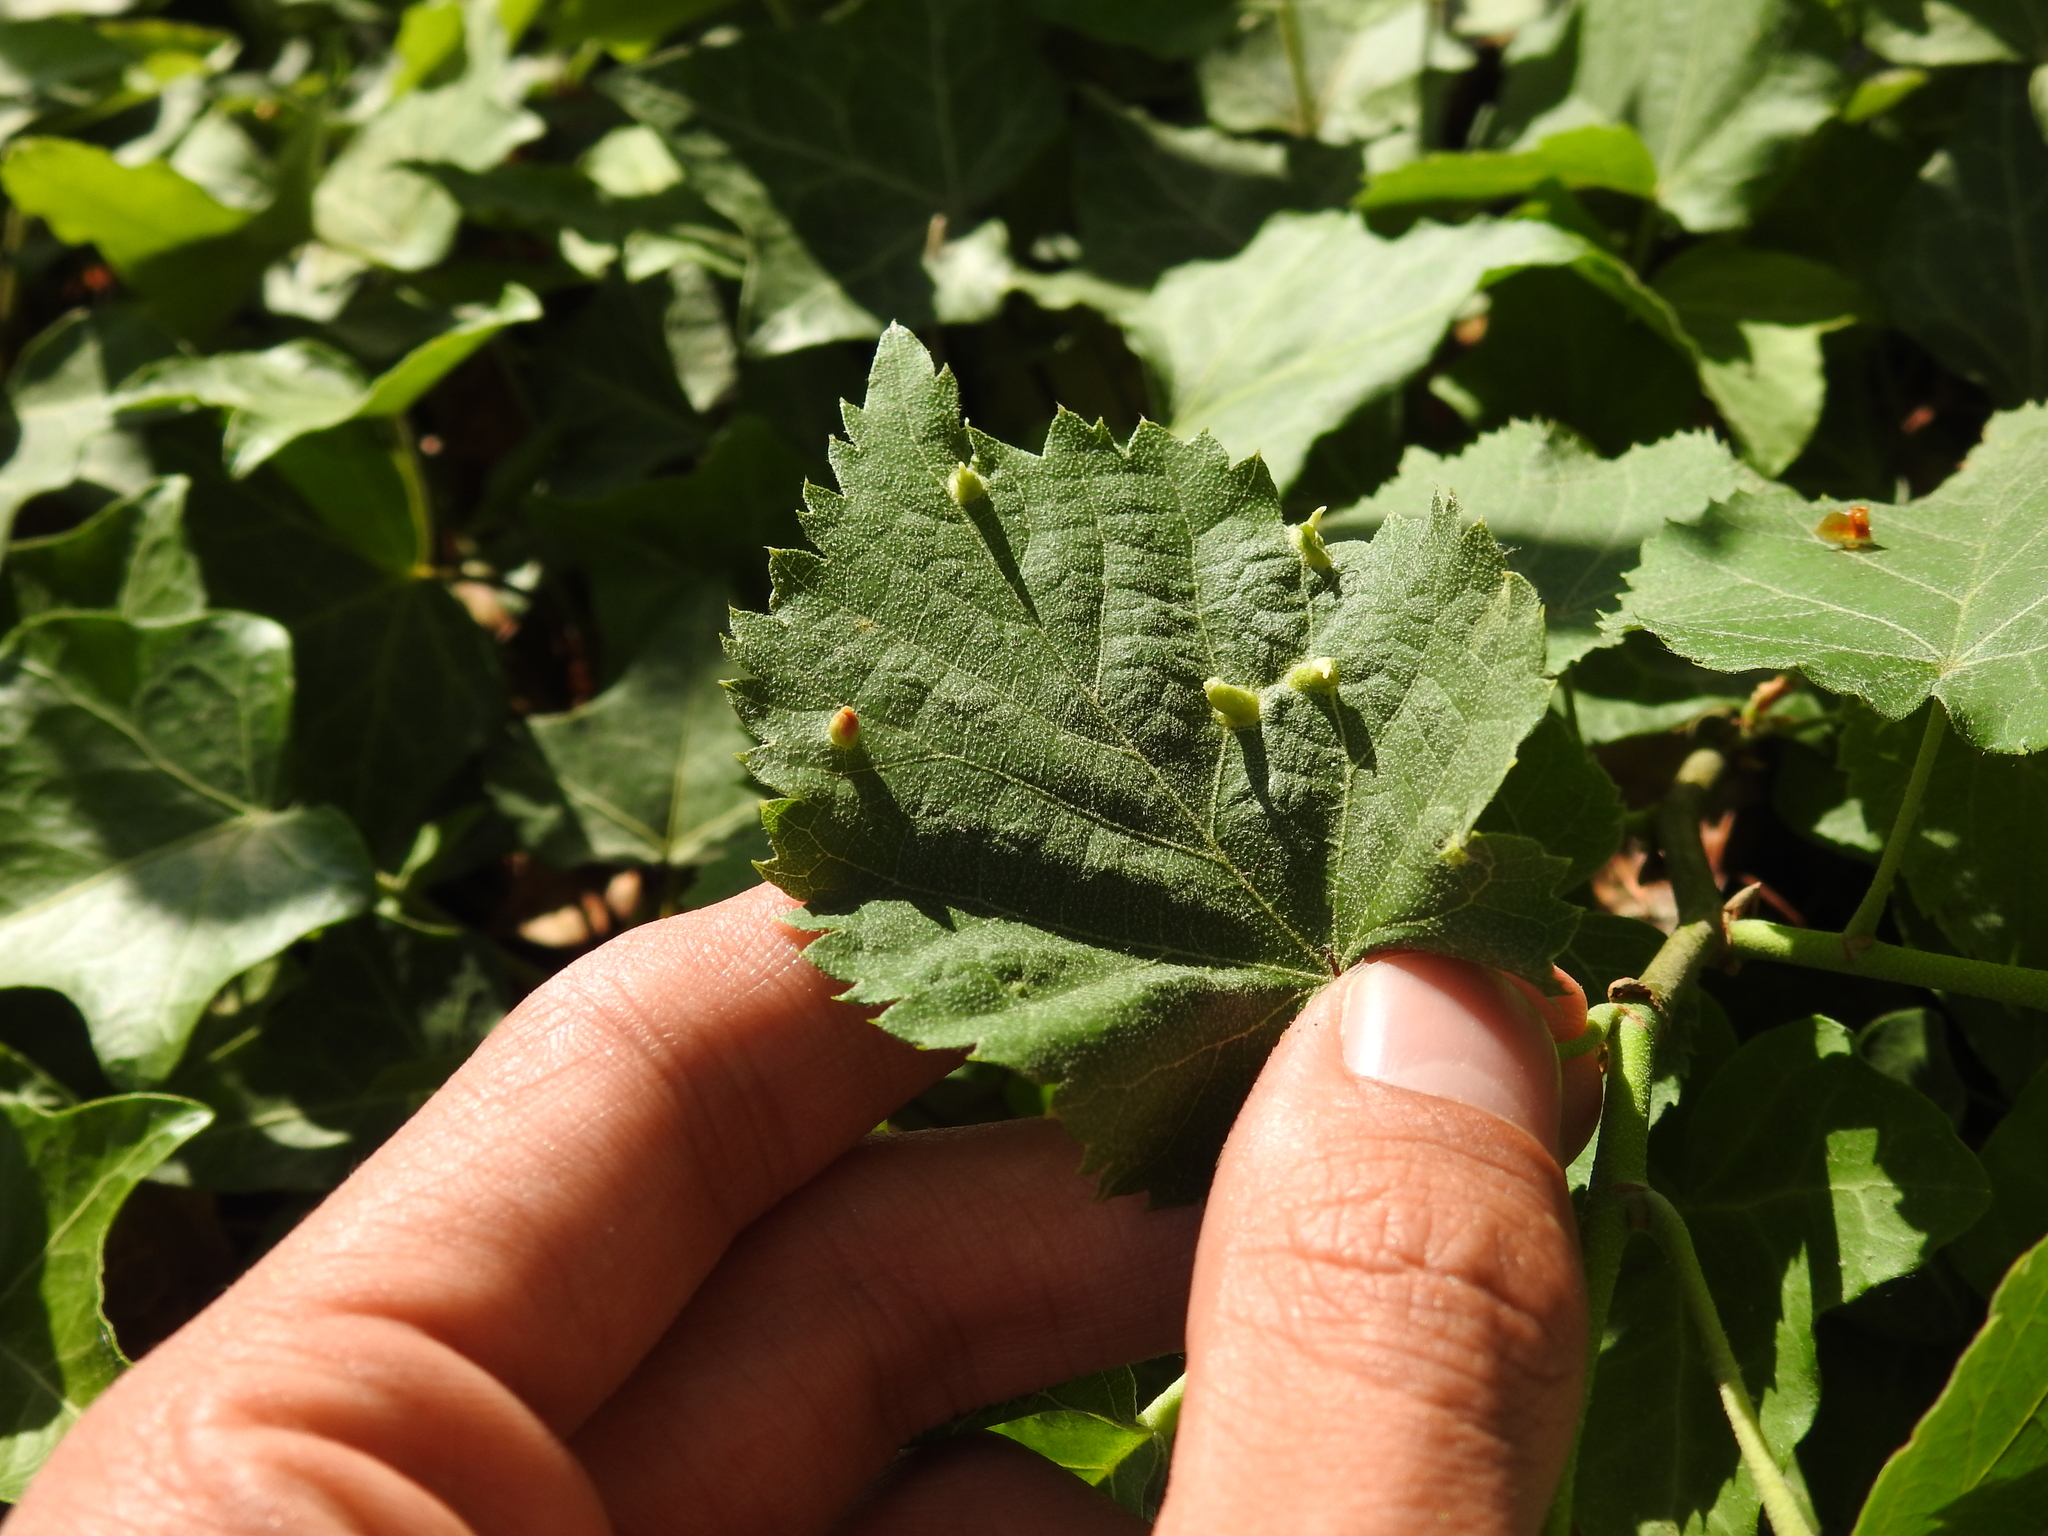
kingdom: Animalia
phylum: Arthropoda
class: Arachnida
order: Trombidiformes
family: Eriophyidae
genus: Eriophyes
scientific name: Eriophyes tiliae
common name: Red nail gall mite
